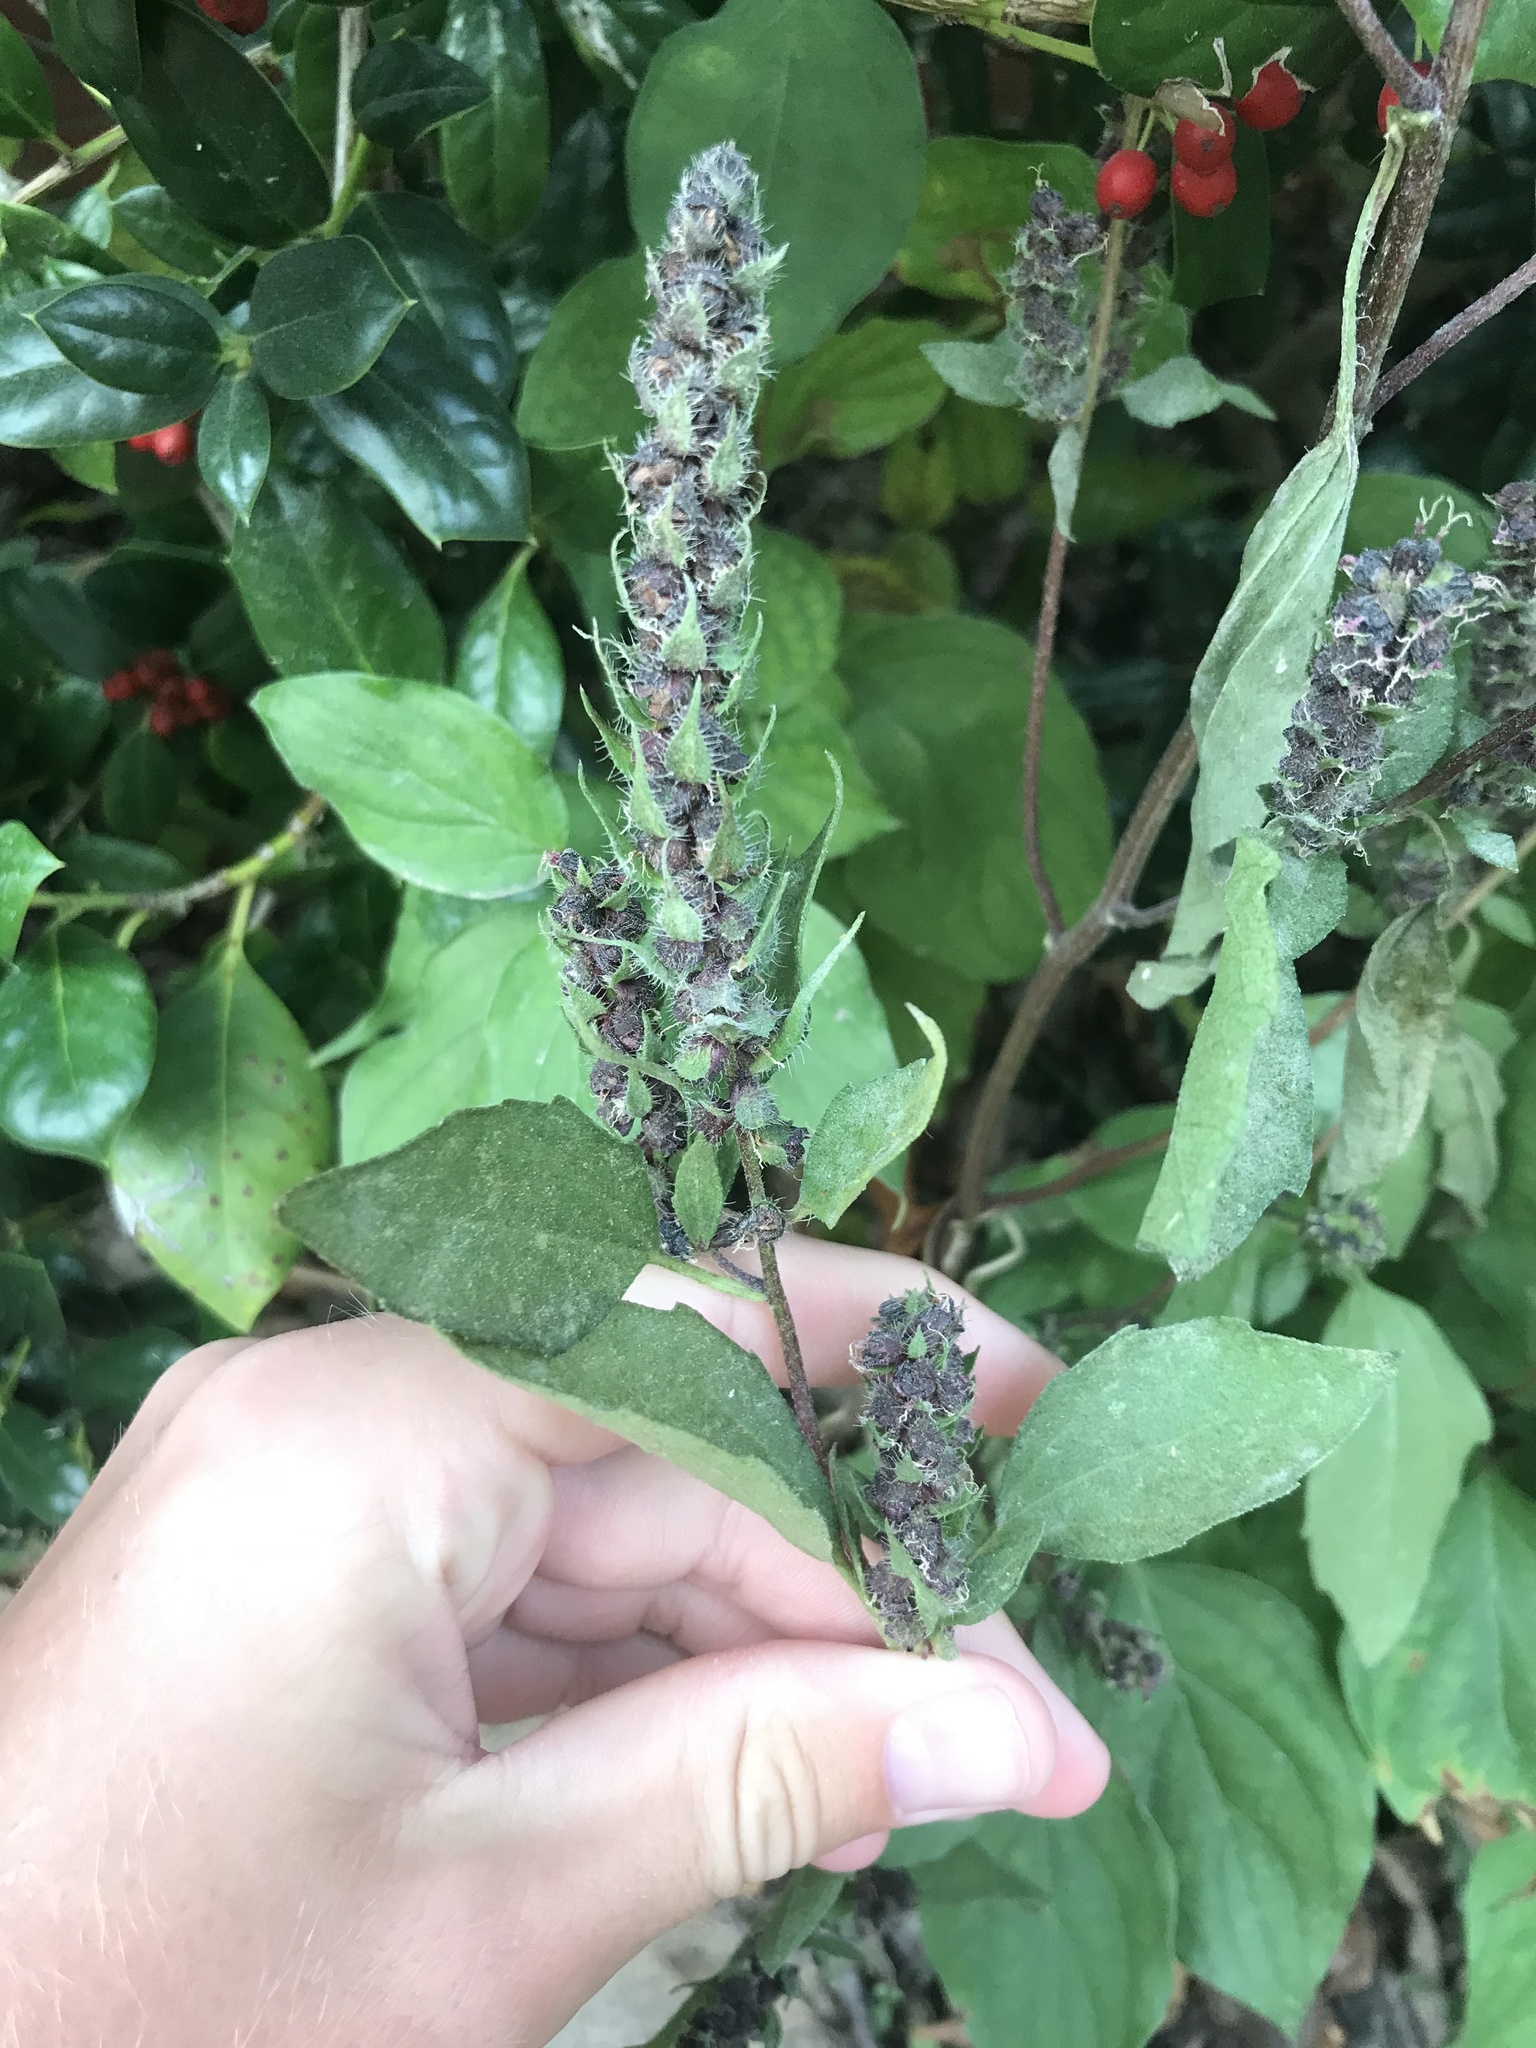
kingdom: Plantae
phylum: Tracheophyta
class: Magnoliopsida
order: Asterales
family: Asteraceae
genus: Iva
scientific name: Iva annua
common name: Marsh-elder
